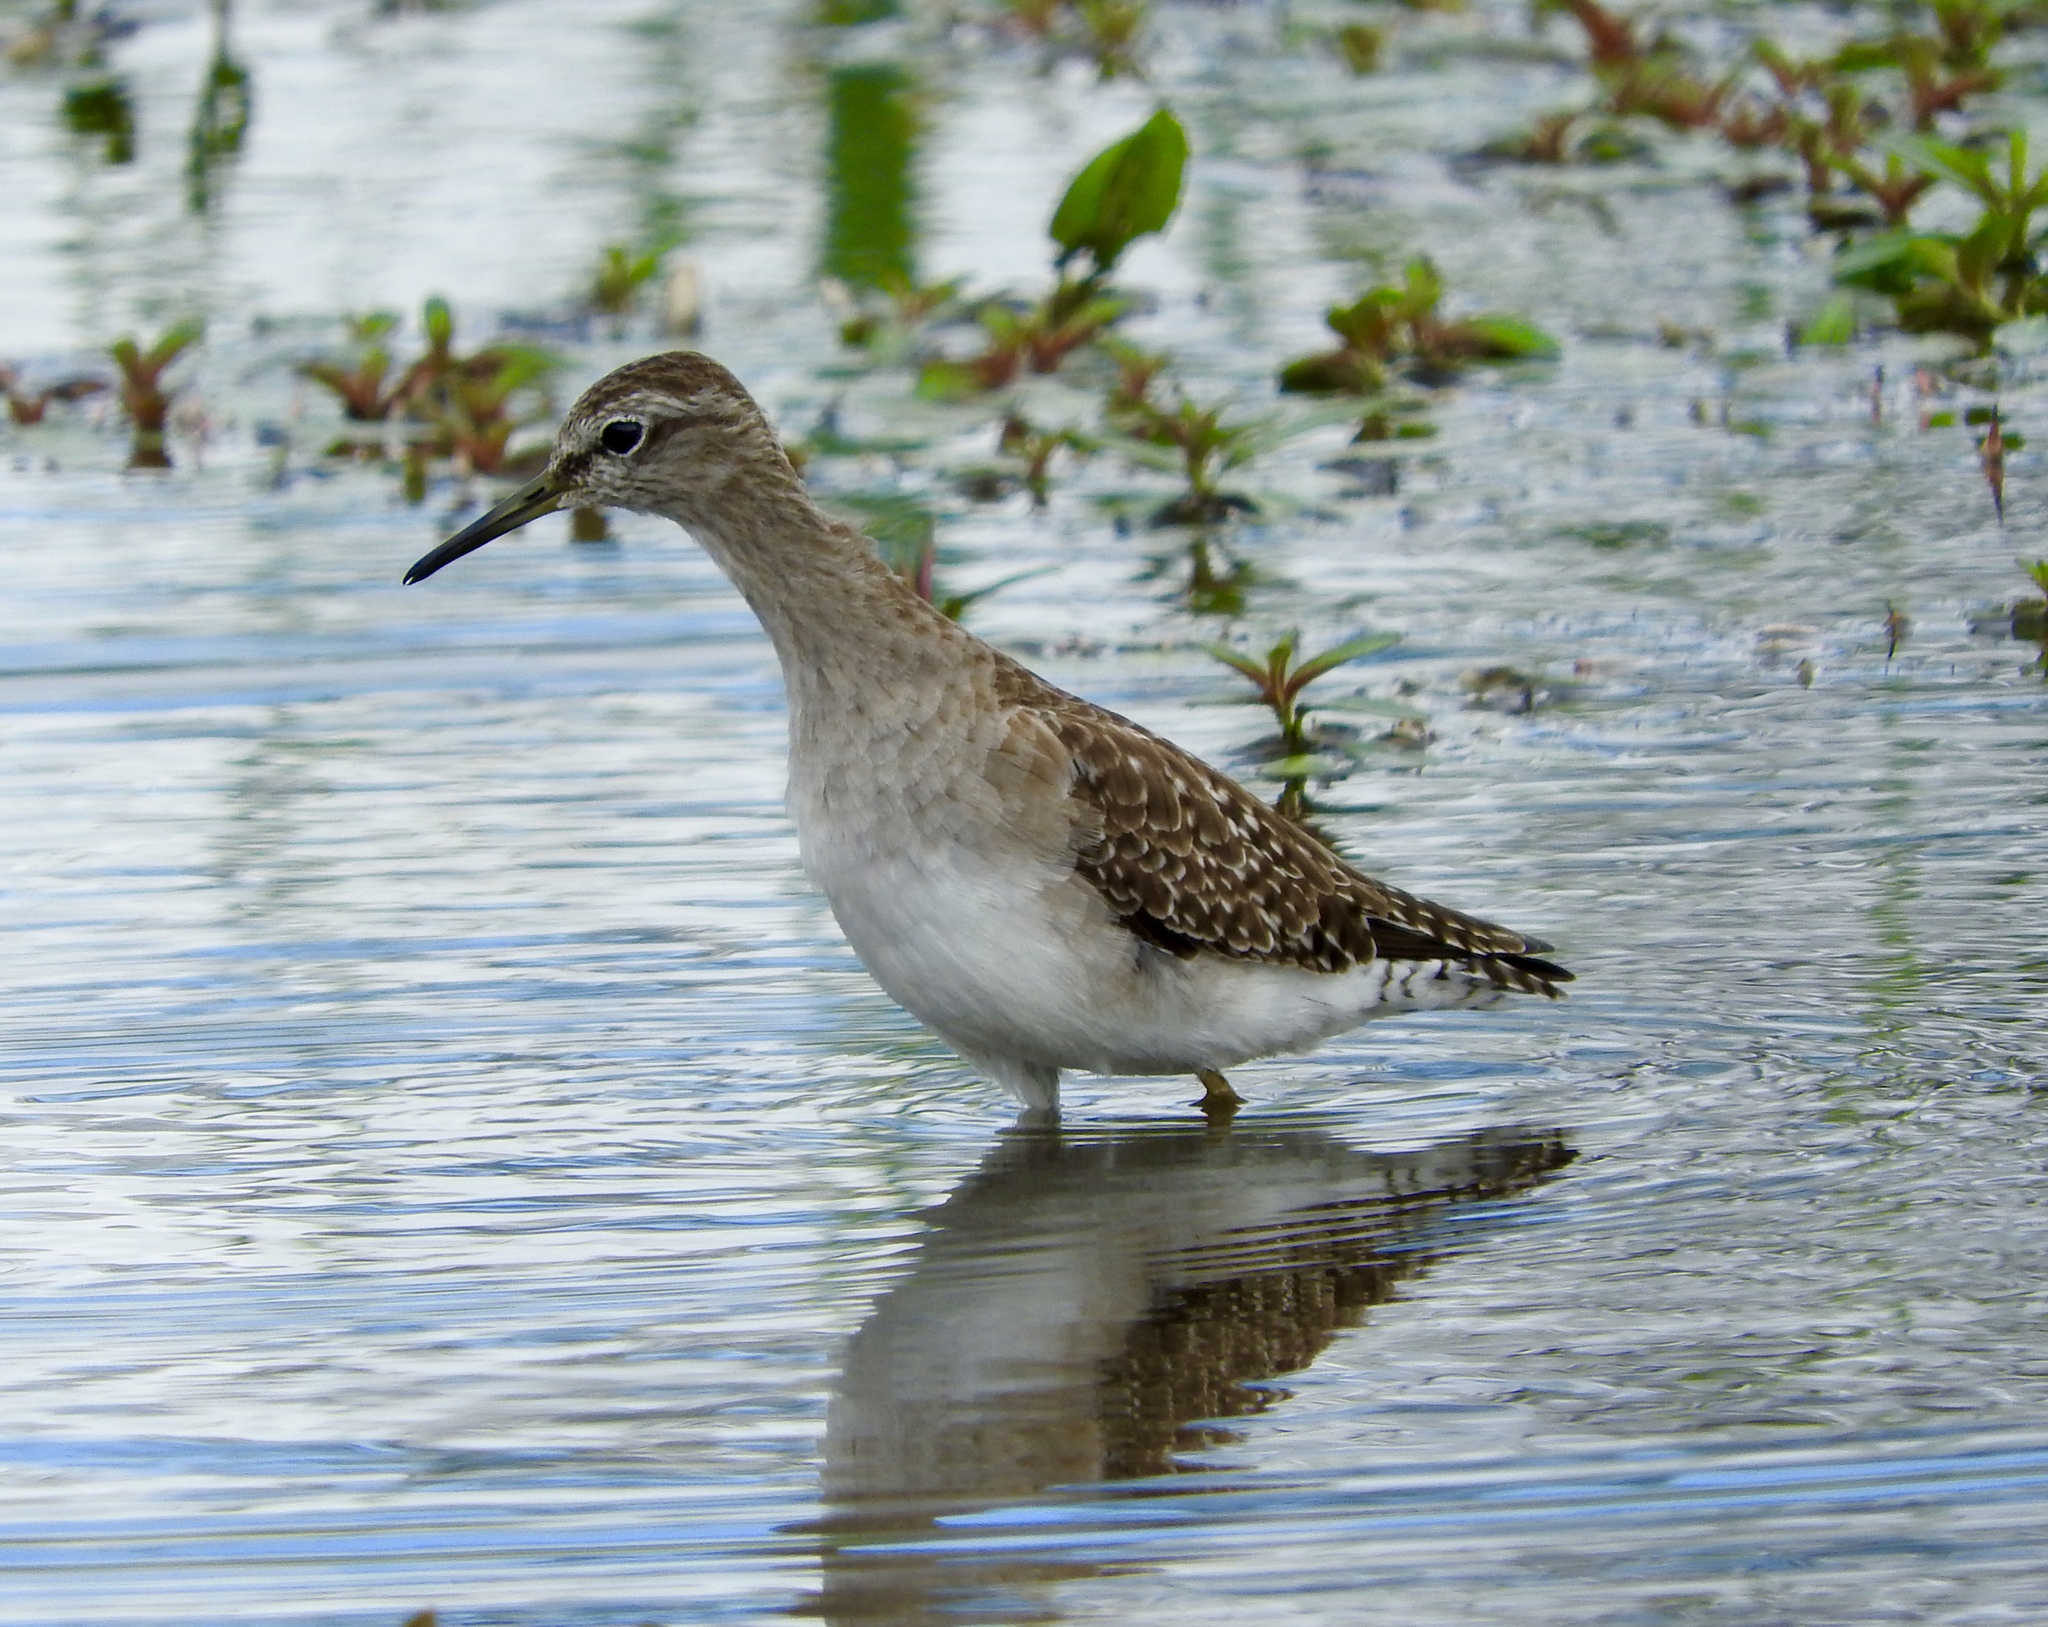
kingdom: Animalia
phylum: Chordata
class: Aves
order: Charadriiformes
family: Scolopacidae
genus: Tringa
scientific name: Tringa glareola
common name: Wood sandpiper
